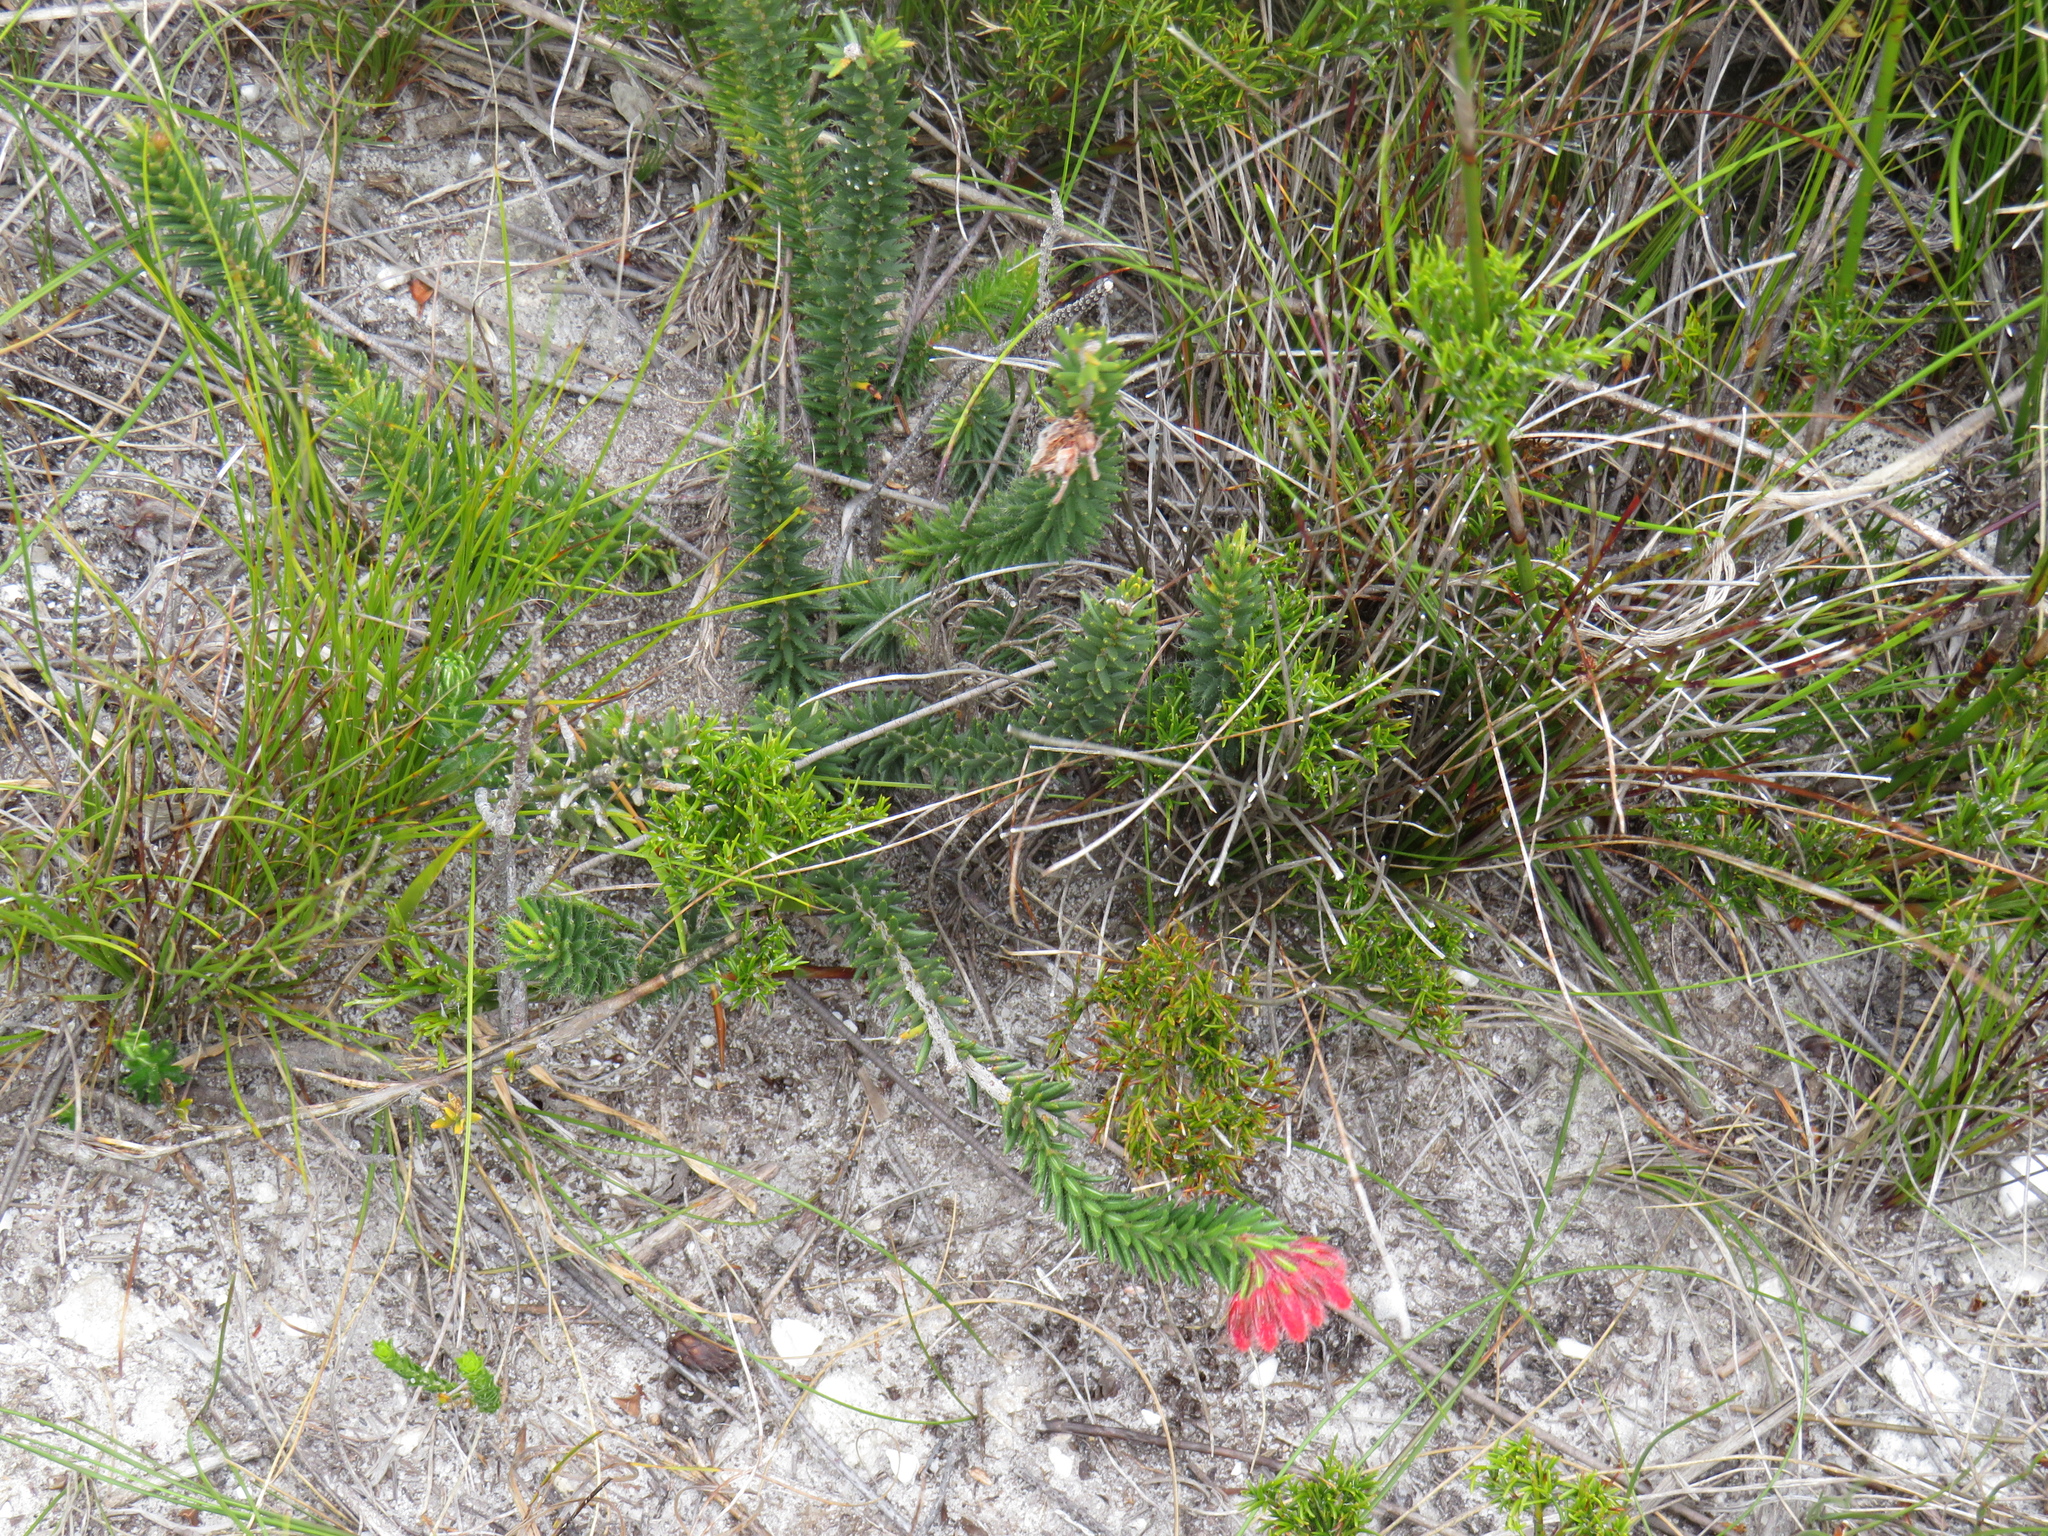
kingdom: Plantae
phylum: Tracheophyta
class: Magnoliopsida
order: Ericales
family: Ericaceae
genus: Erica
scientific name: Erica cerinthoides
